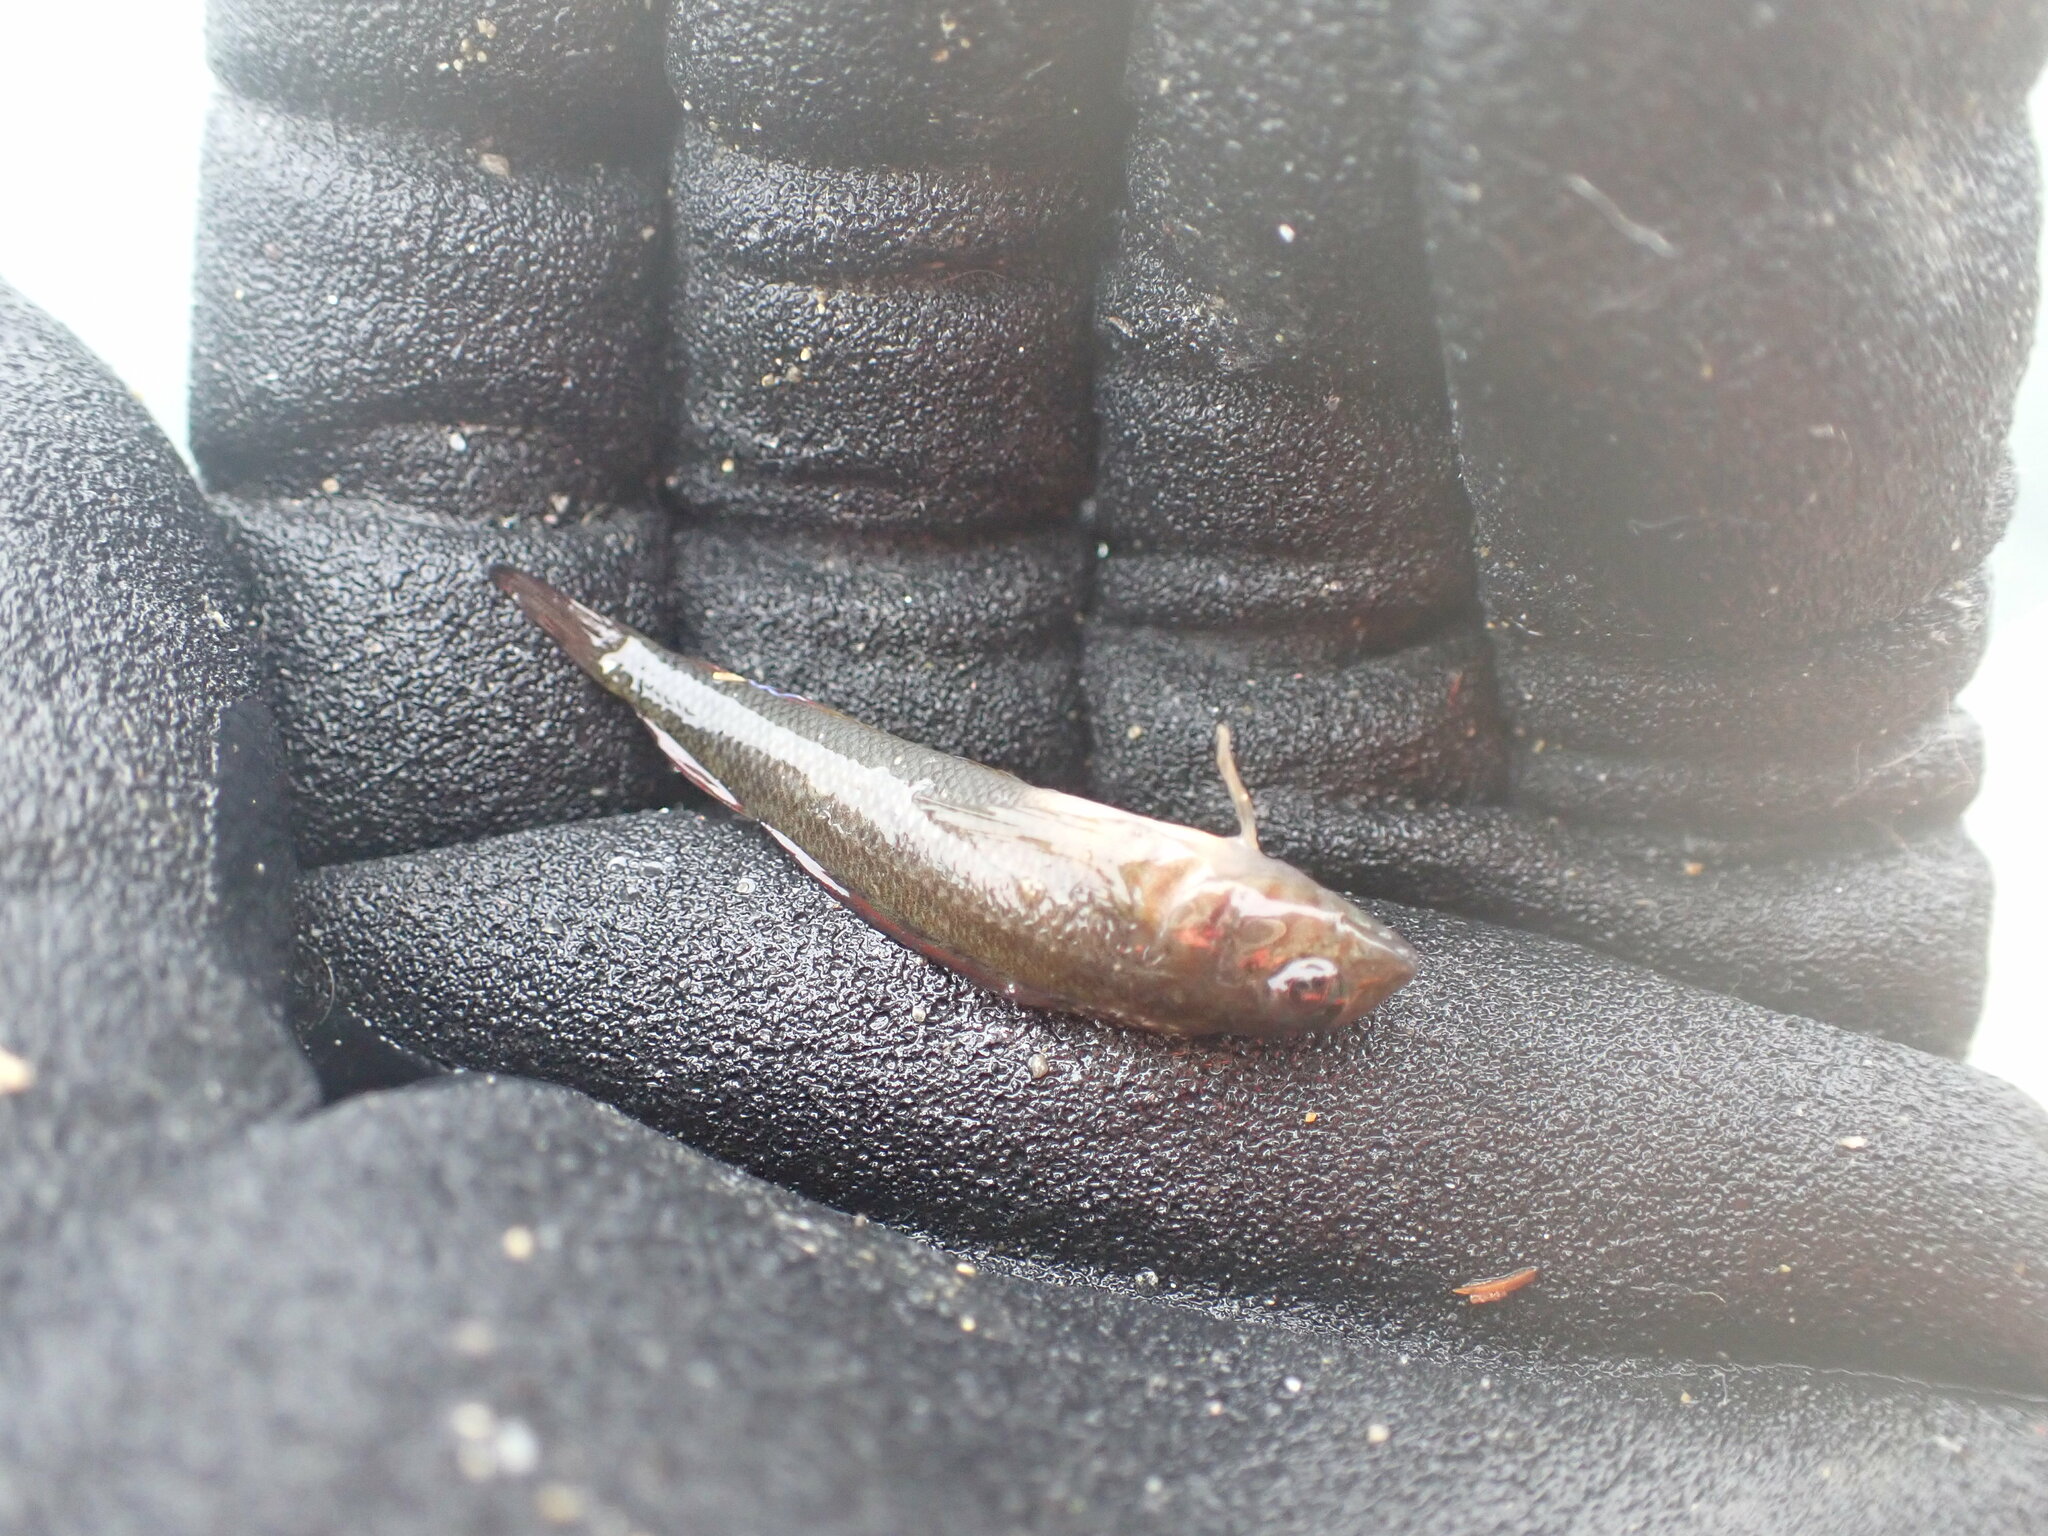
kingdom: Animalia
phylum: Chordata
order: Perciformes
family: Tripterygiidae
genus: Forsterygion
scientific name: Forsterygion lapillum
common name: Common triplefin
